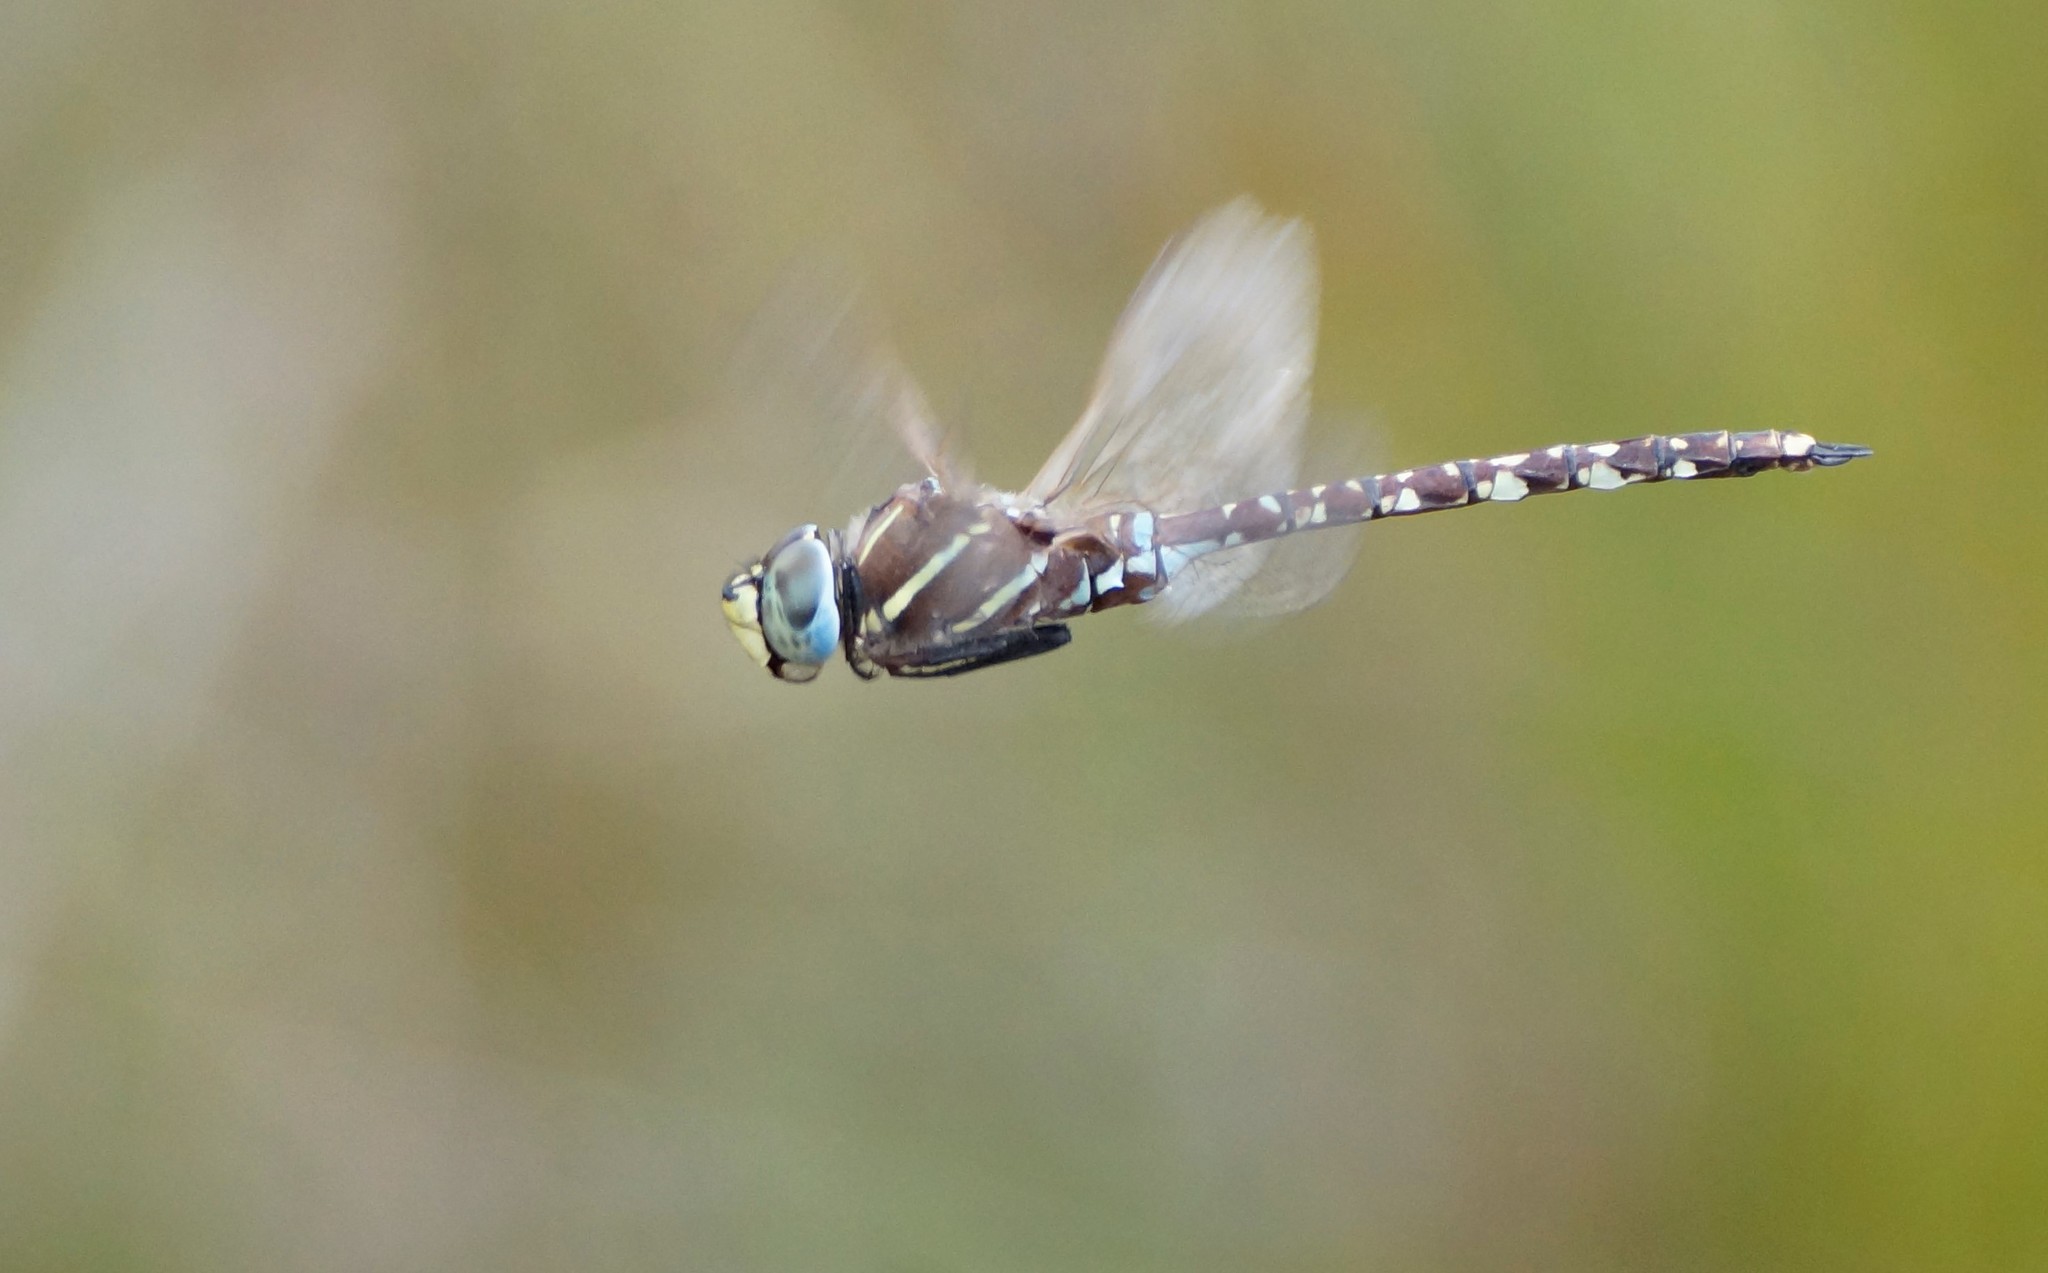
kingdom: Animalia
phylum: Arthropoda
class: Insecta
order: Odonata
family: Aeshnidae
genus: Aeshna
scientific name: Aeshna brevistyla
